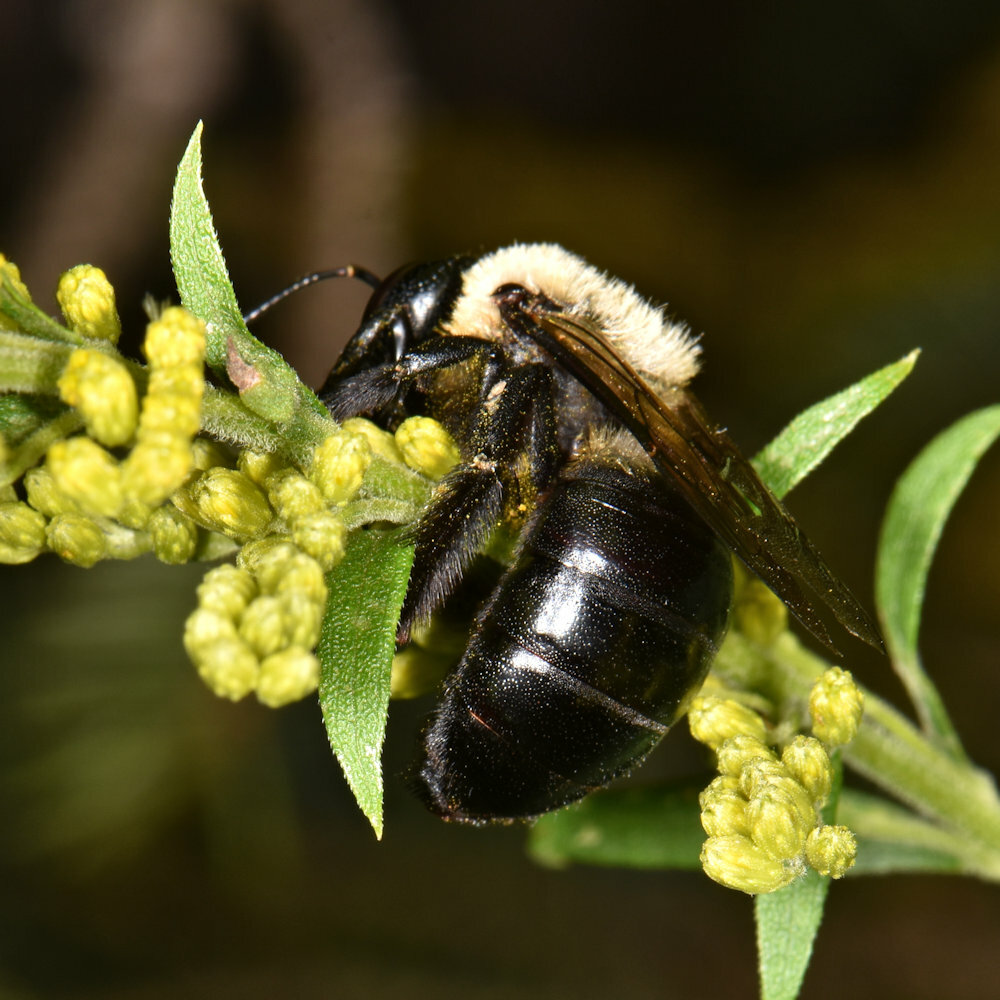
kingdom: Animalia
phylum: Arthropoda
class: Insecta
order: Hymenoptera
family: Apidae
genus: Xylocopa
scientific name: Xylocopa virginica
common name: Carpenter bee
